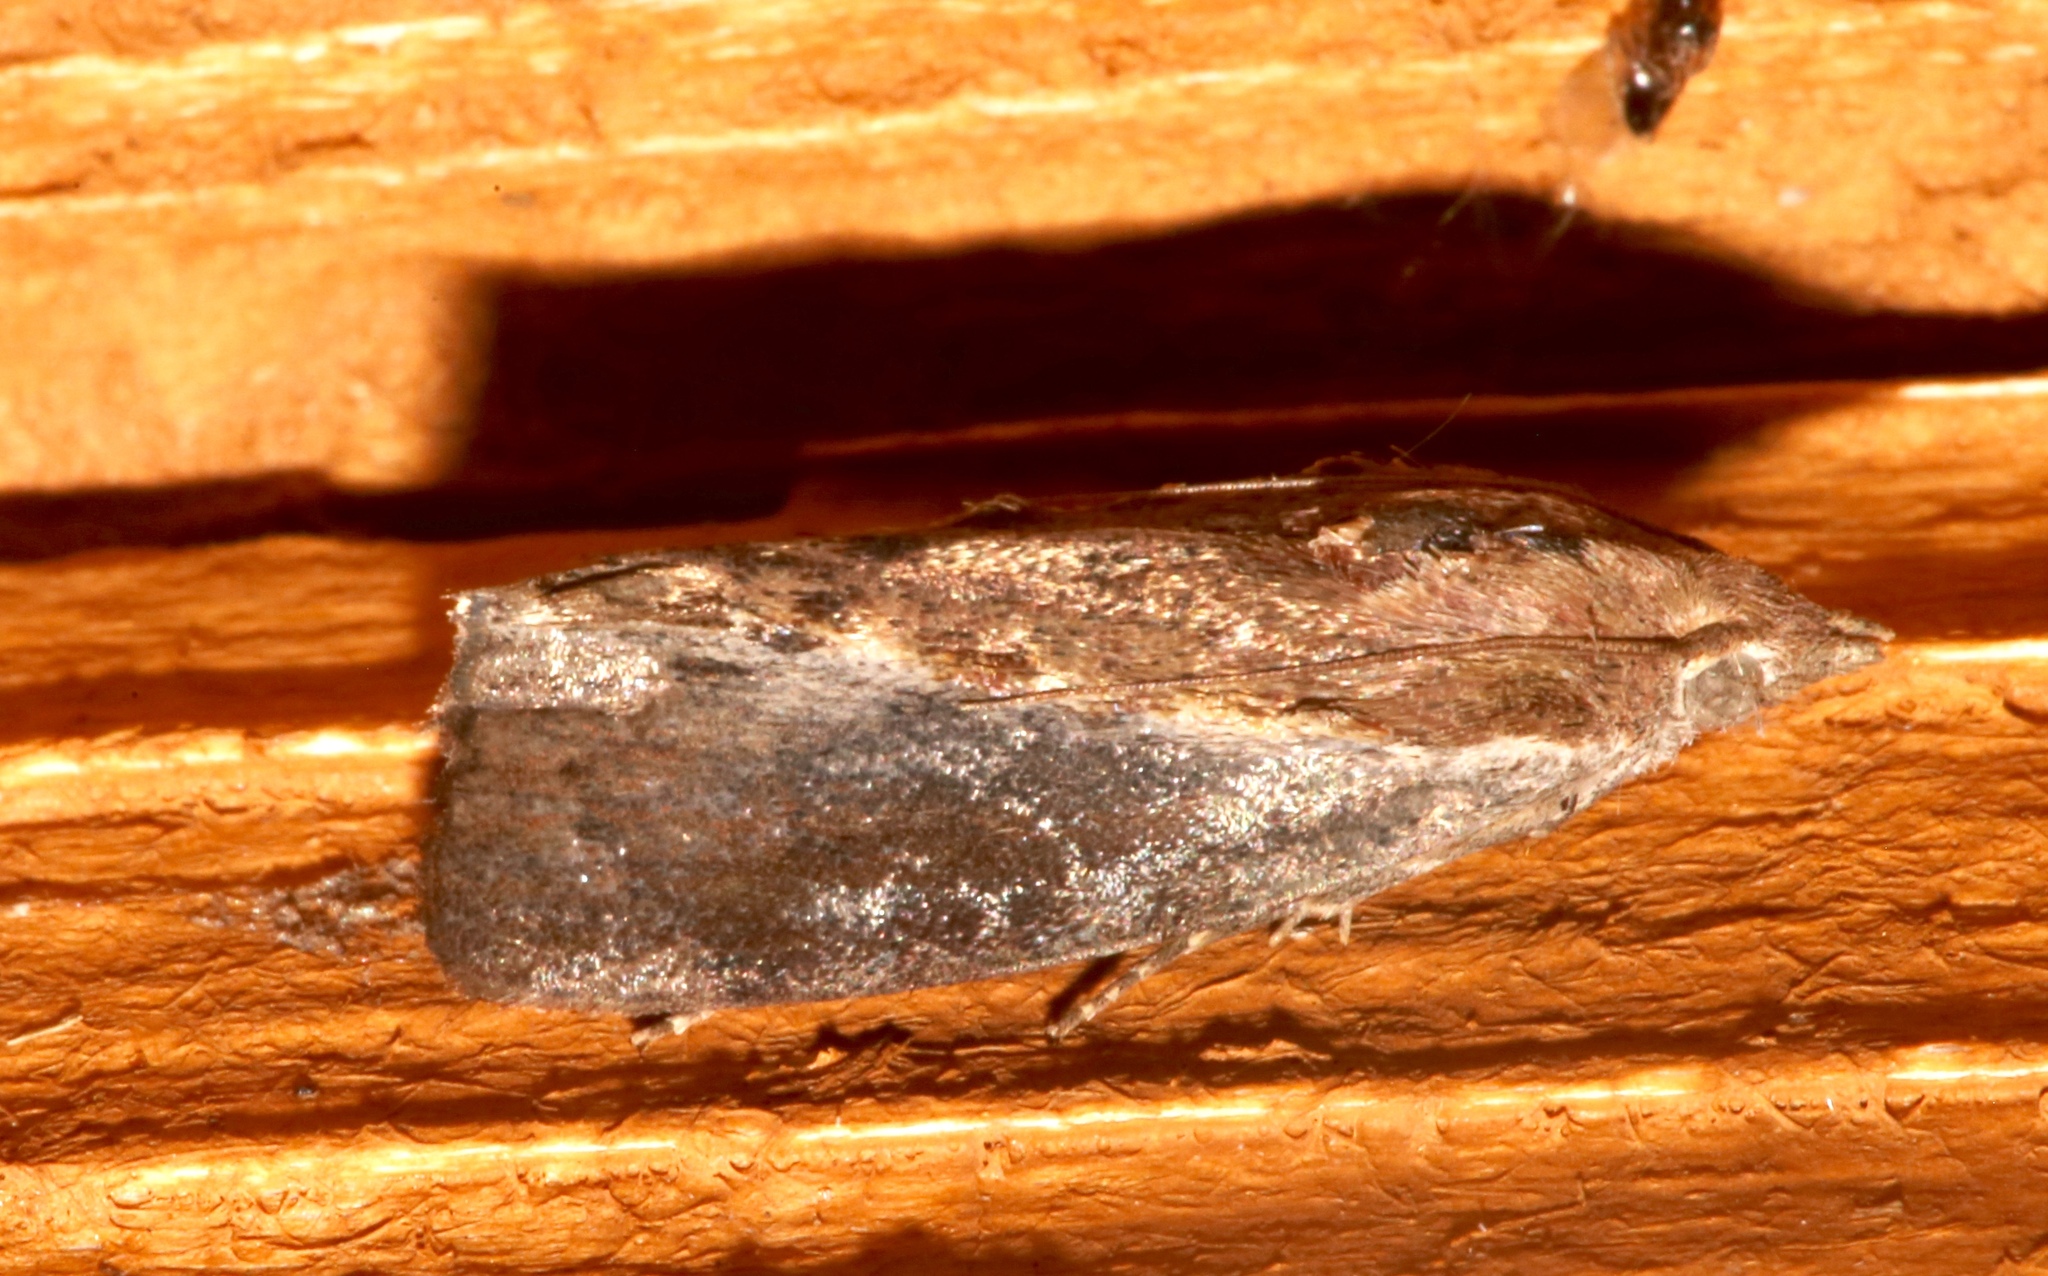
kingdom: Animalia
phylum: Arthropoda
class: Insecta
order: Lepidoptera
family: Pyralidae
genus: Galleria
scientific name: Galleria mellonella
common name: Greater wax moth
